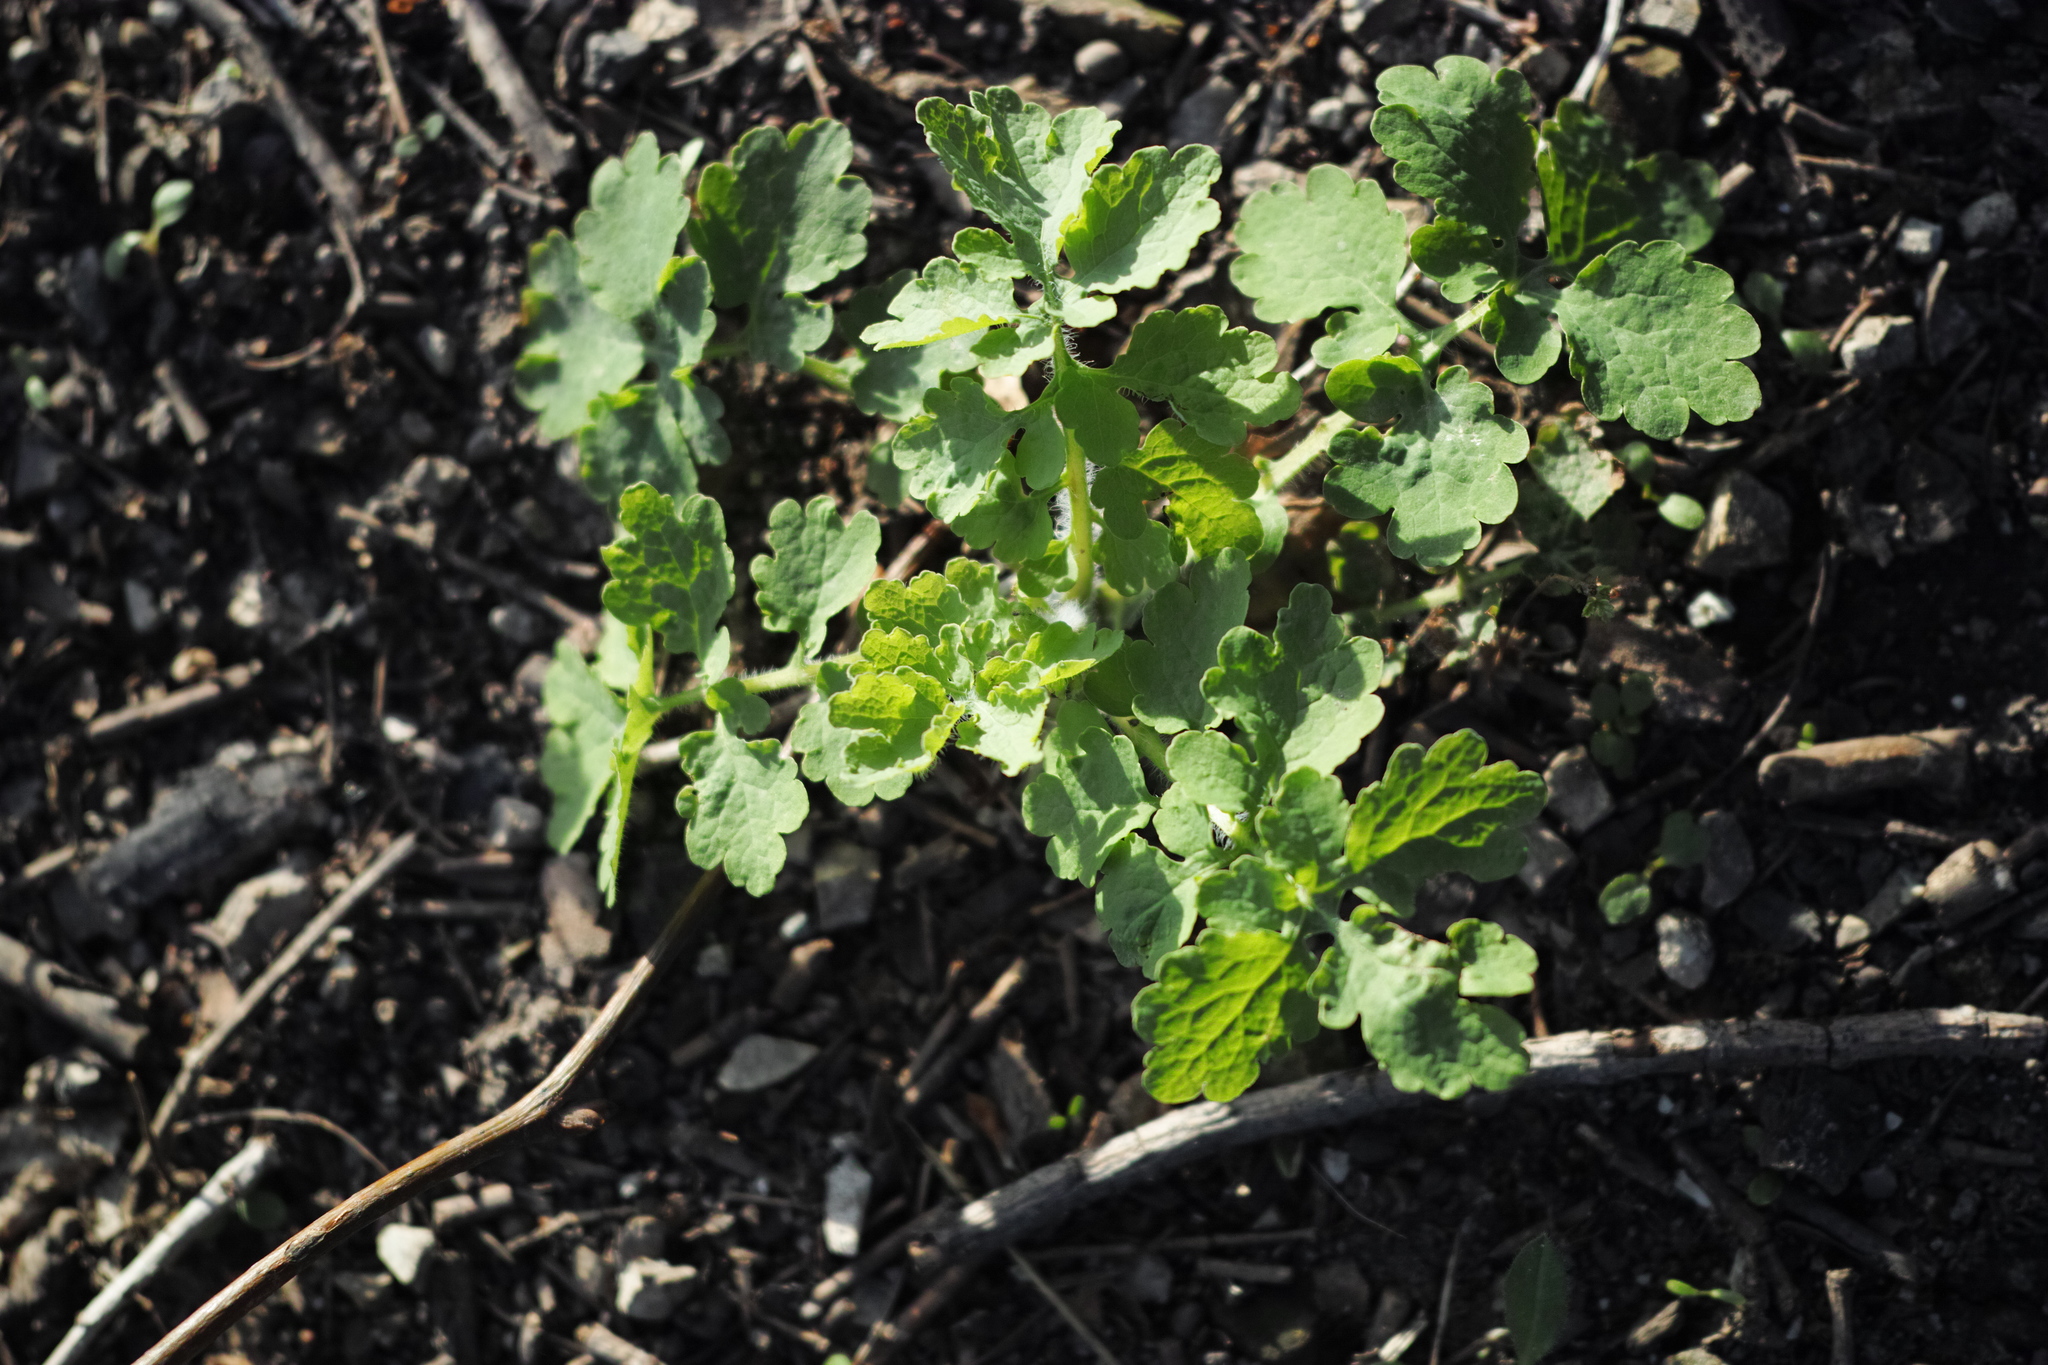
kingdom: Plantae
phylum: Tracheophyta
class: Magnoliopsida
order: Ranunculales
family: Papaveraceae
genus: Chelidonium
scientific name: Chelidonium majus
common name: Greater celandine
